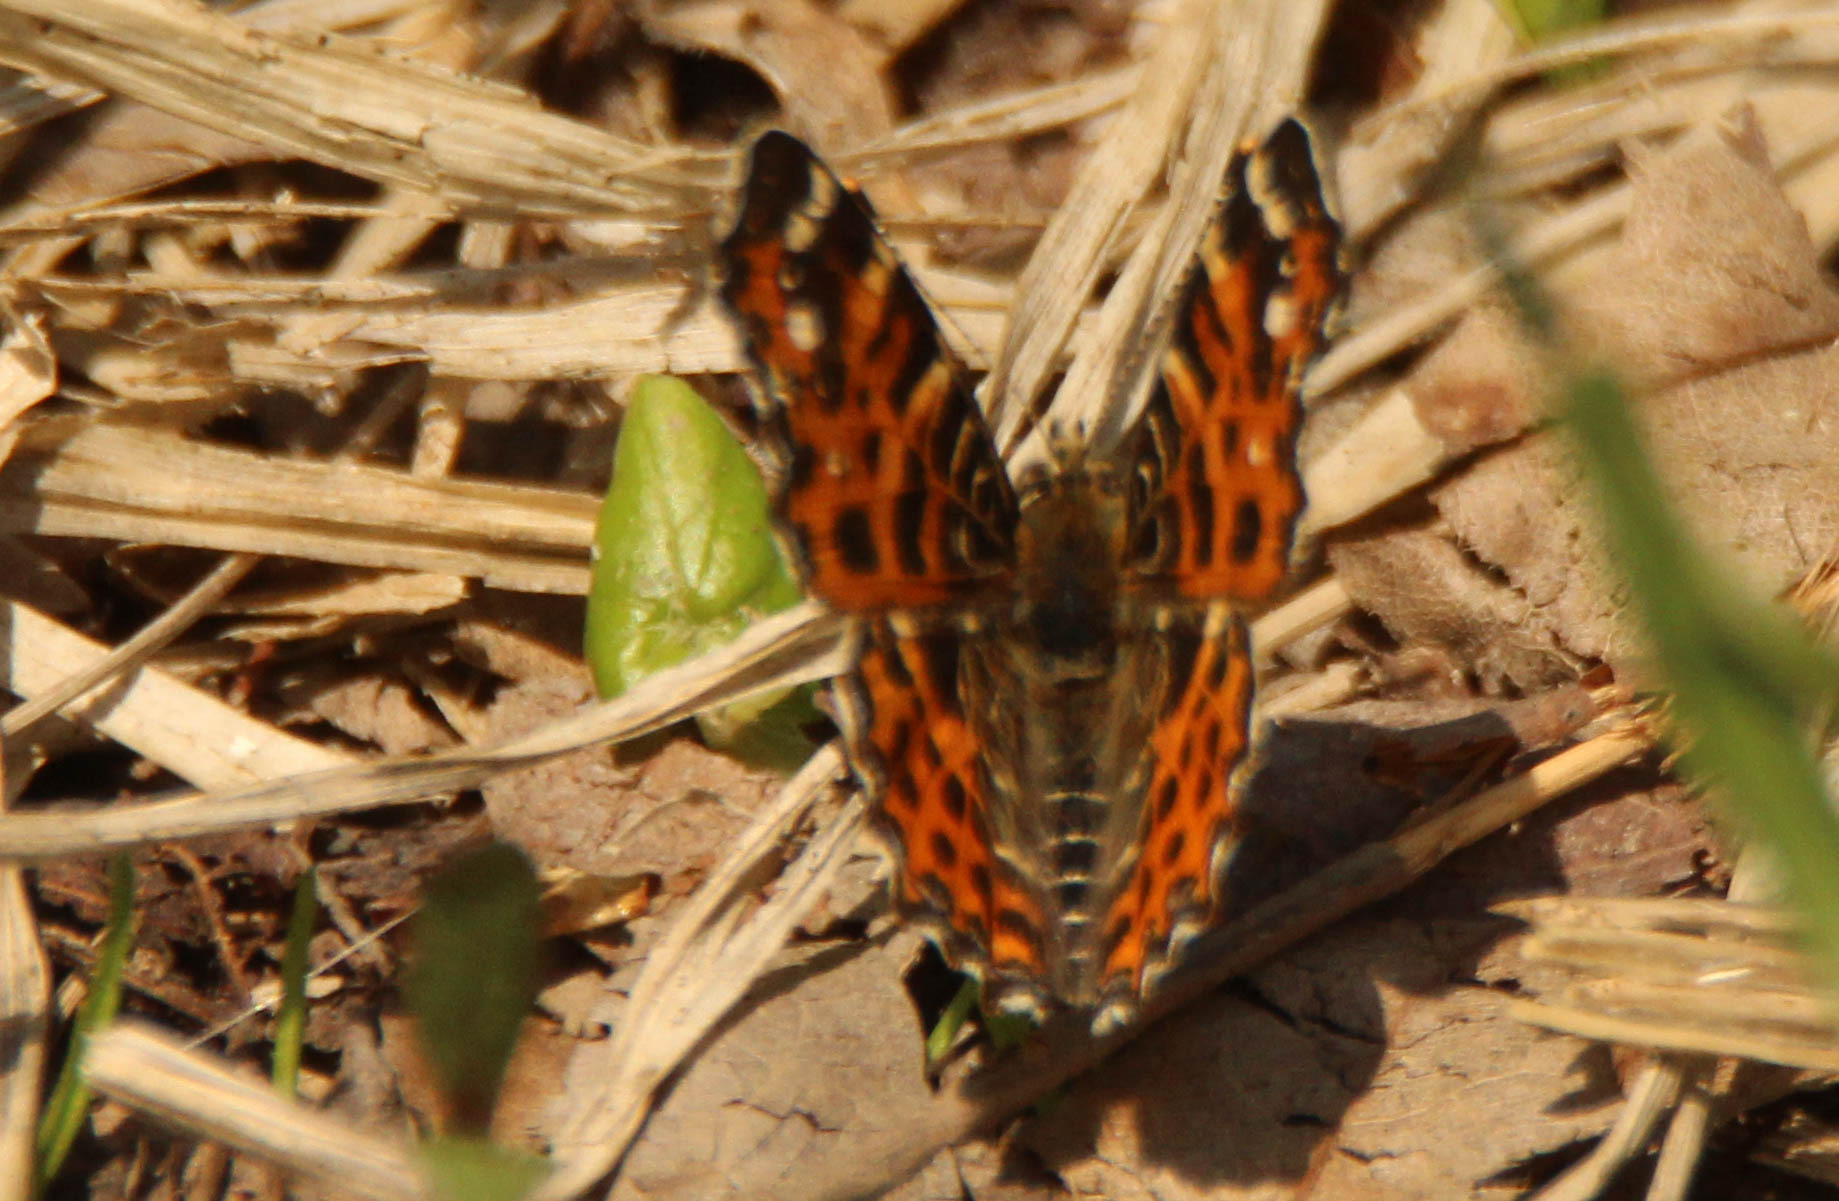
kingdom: Animalia
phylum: Arthropoda
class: Insecta
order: Lepidoptera
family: Nymphalidae
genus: Araschnia
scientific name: Araschnia levana
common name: Map butterfly
